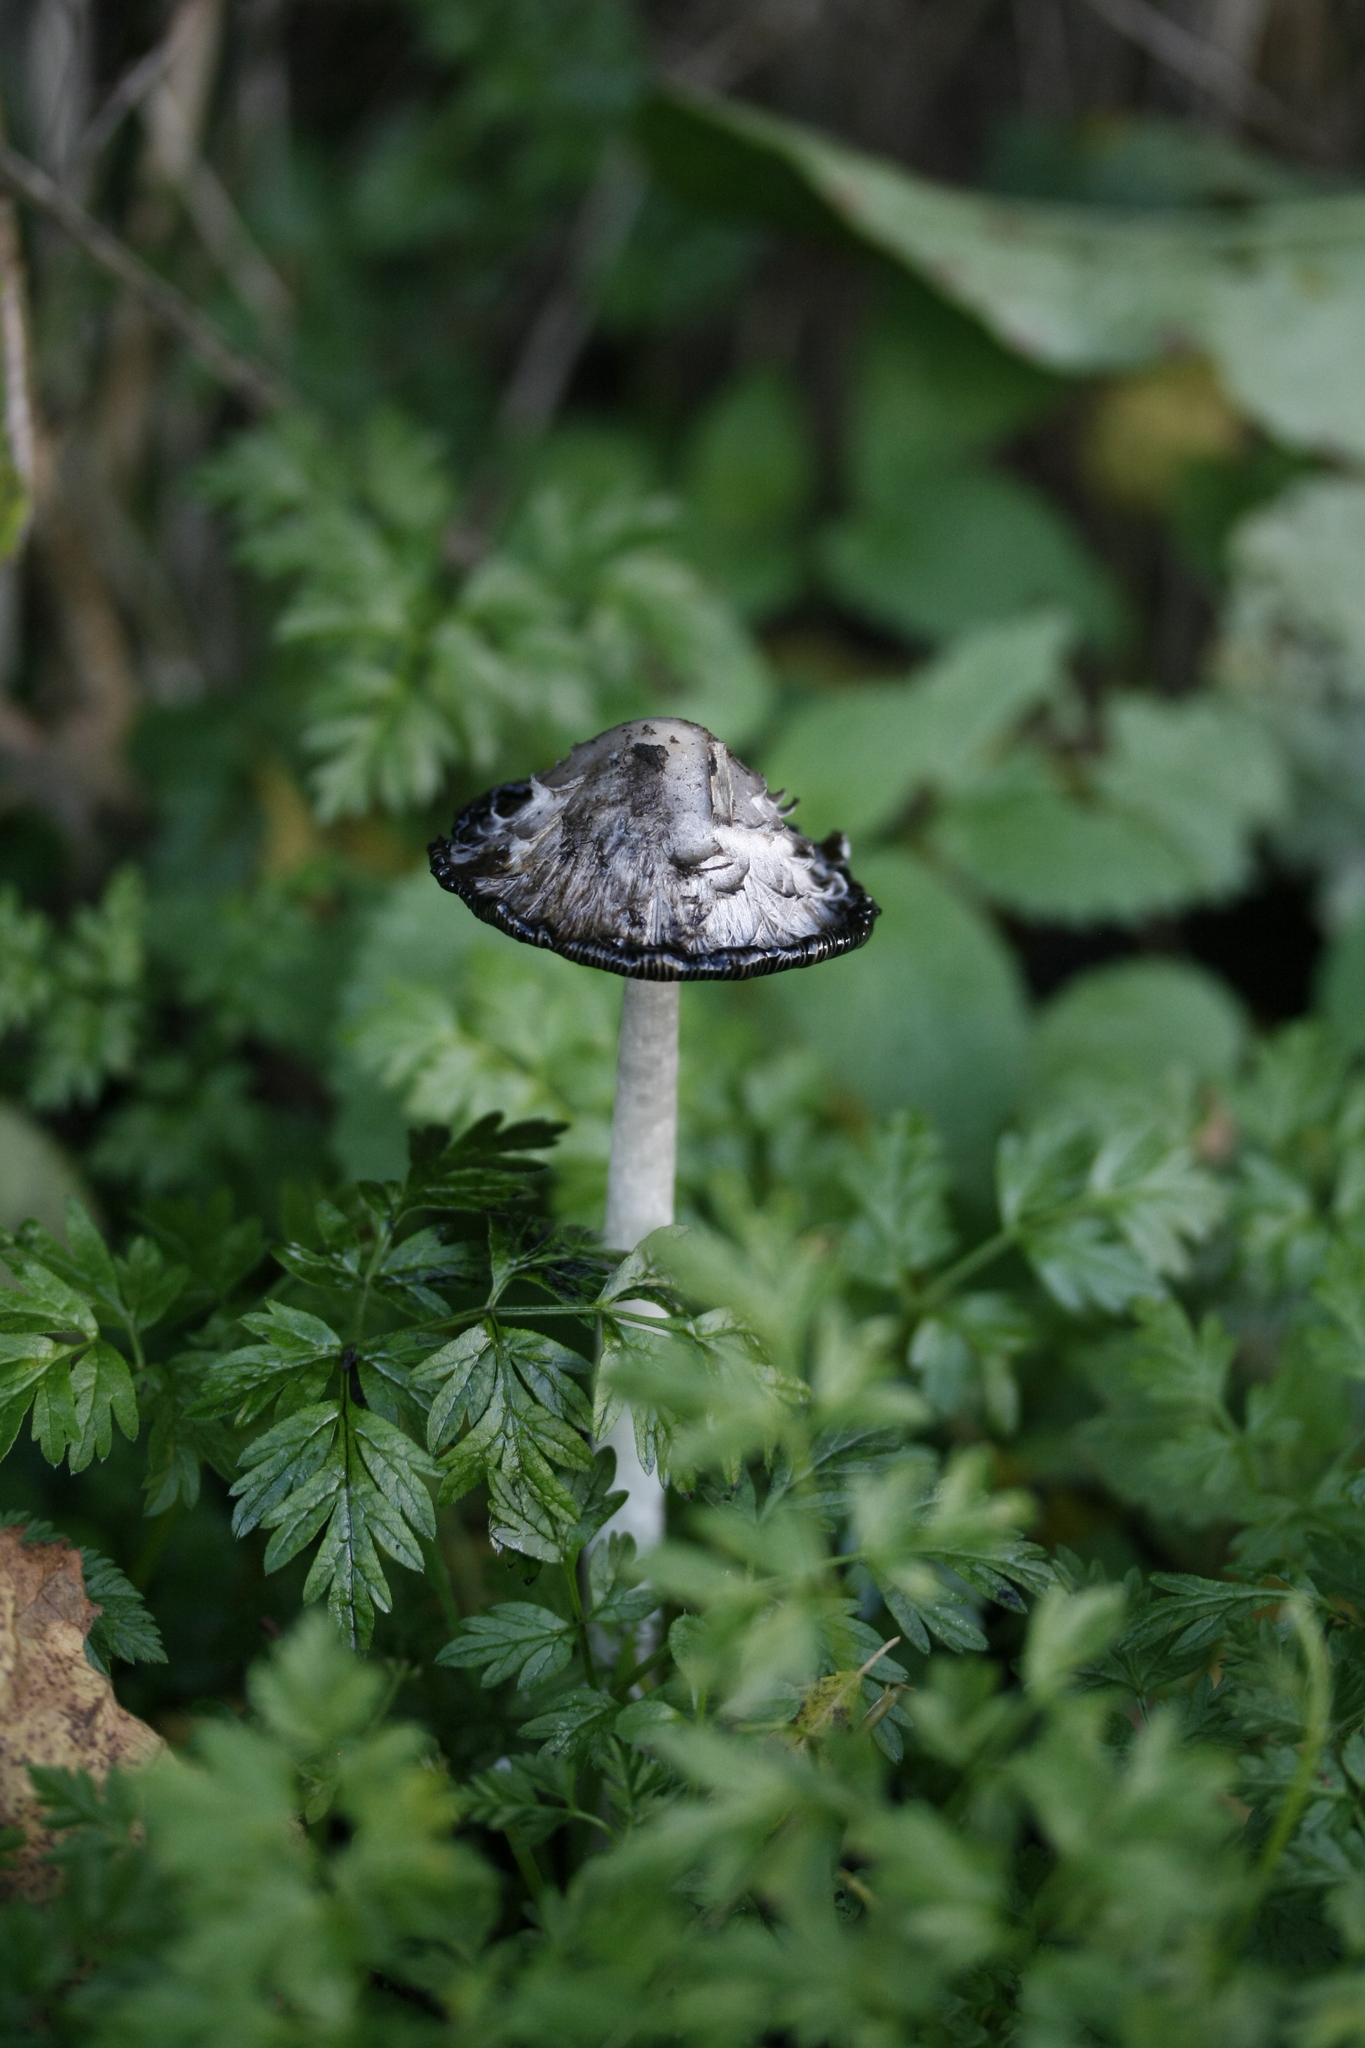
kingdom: Fungi
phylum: Basidiomycota
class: Agaricomycetes
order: Agaricales
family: Agaricaceae
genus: Coprinus
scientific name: Coprinus comatus
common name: Lawyer's wig
